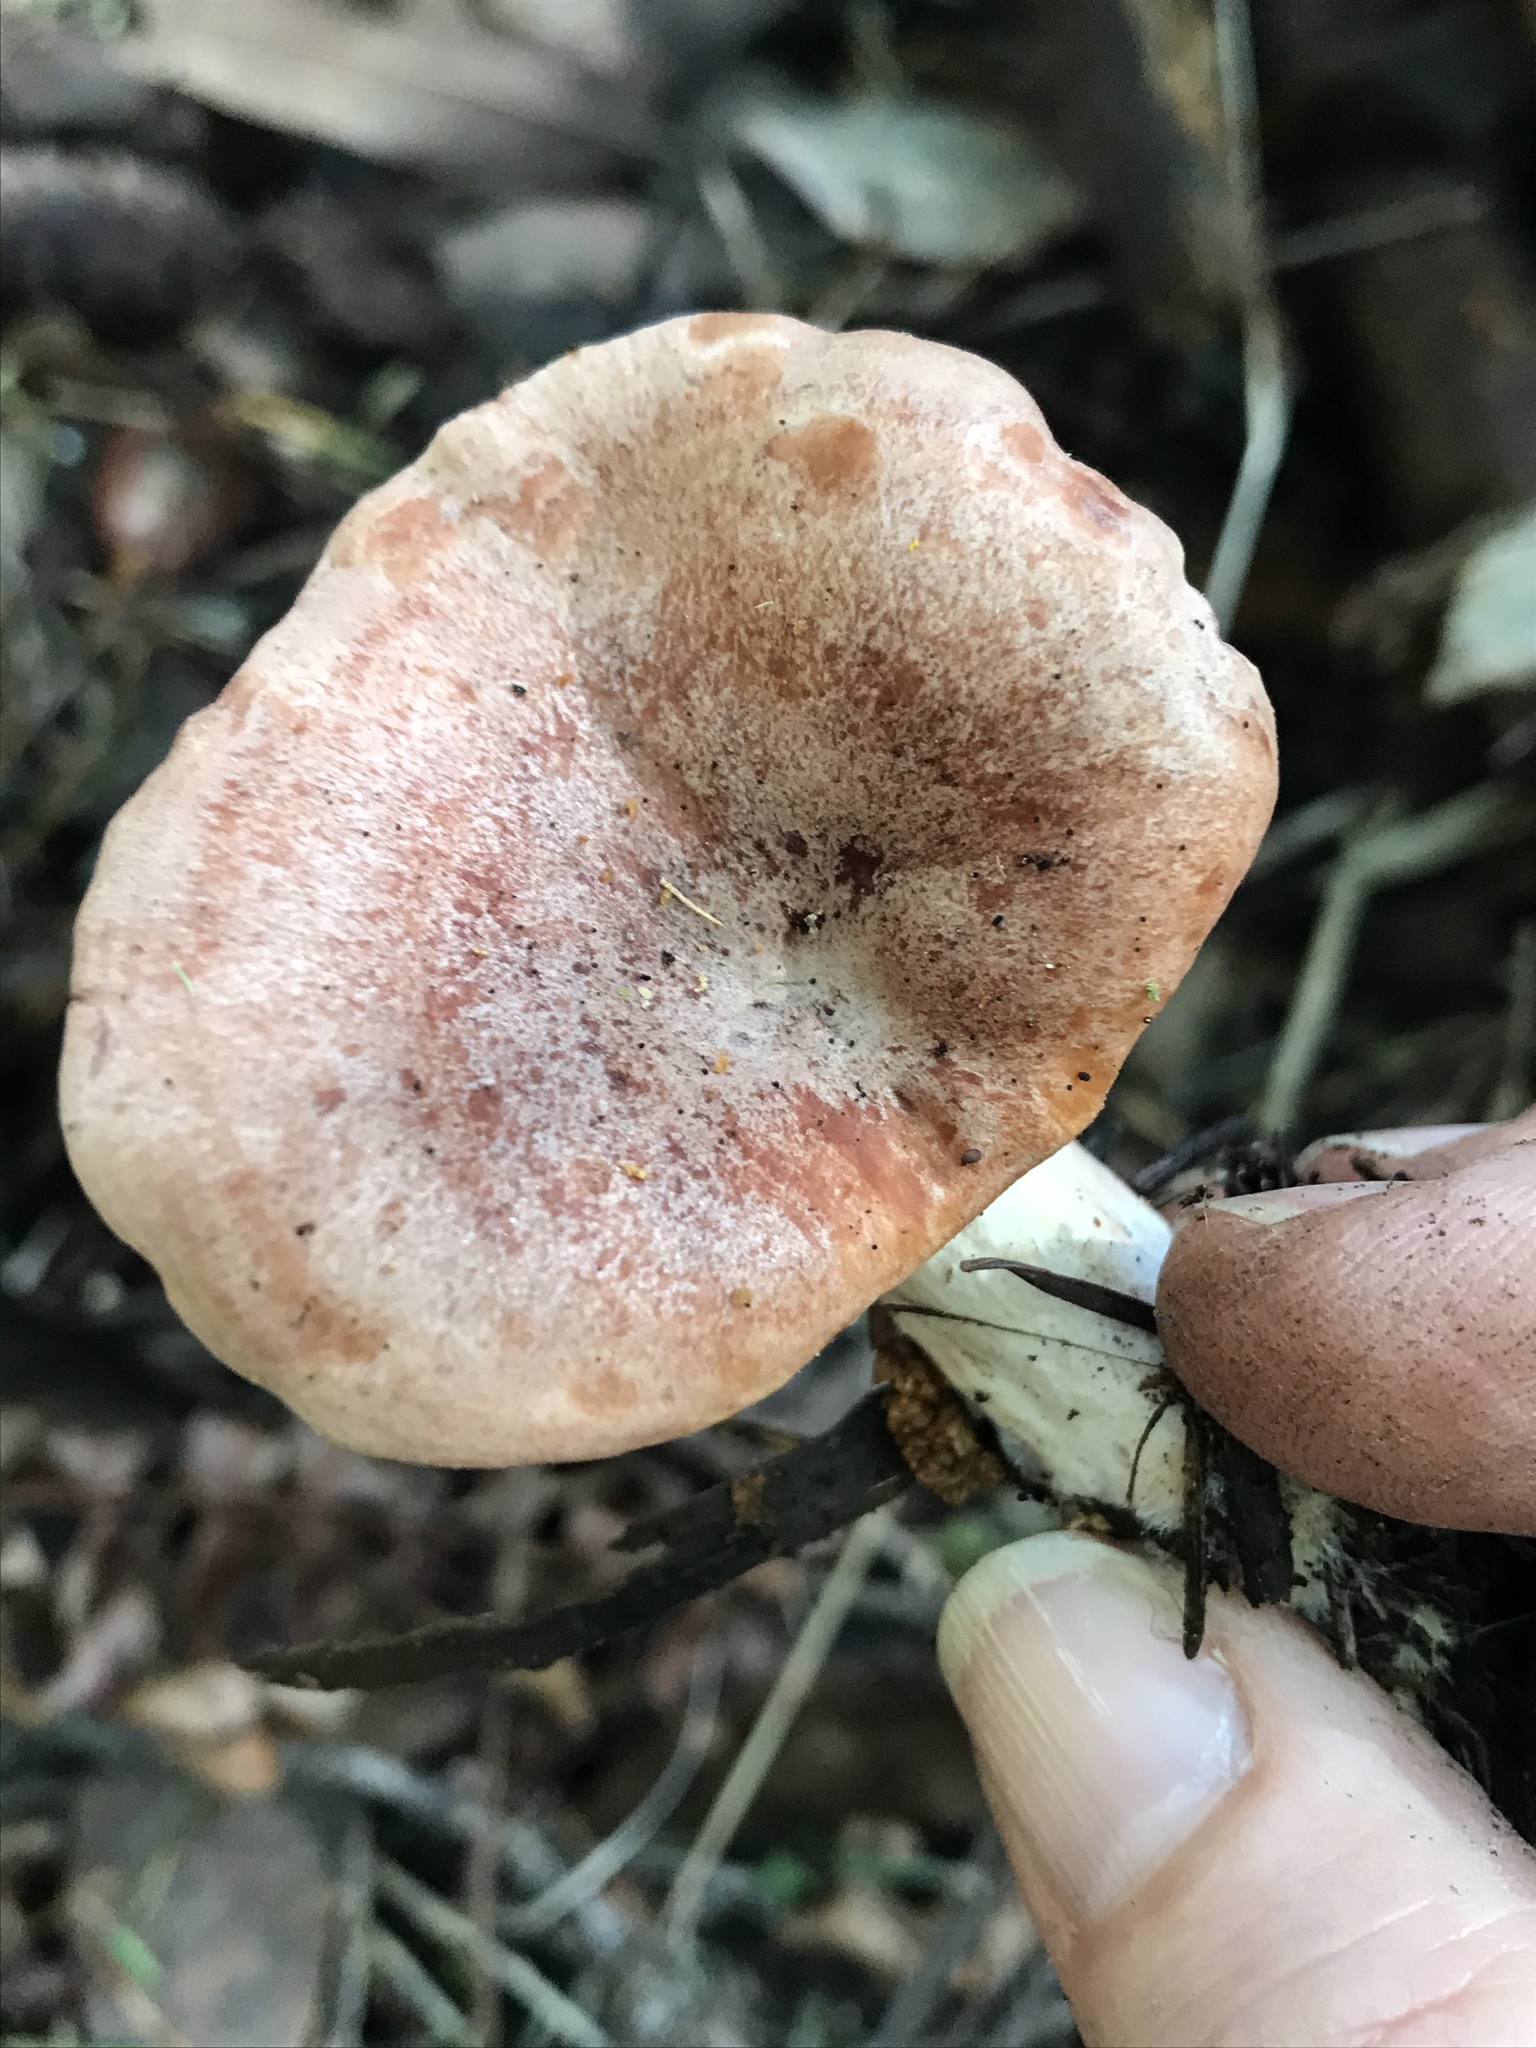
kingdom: Fungi
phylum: Basidiomycota
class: Agaricomycetes
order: Russulales
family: Russulaceae
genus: Lactarius
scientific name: Lactarius xanthogalactus
